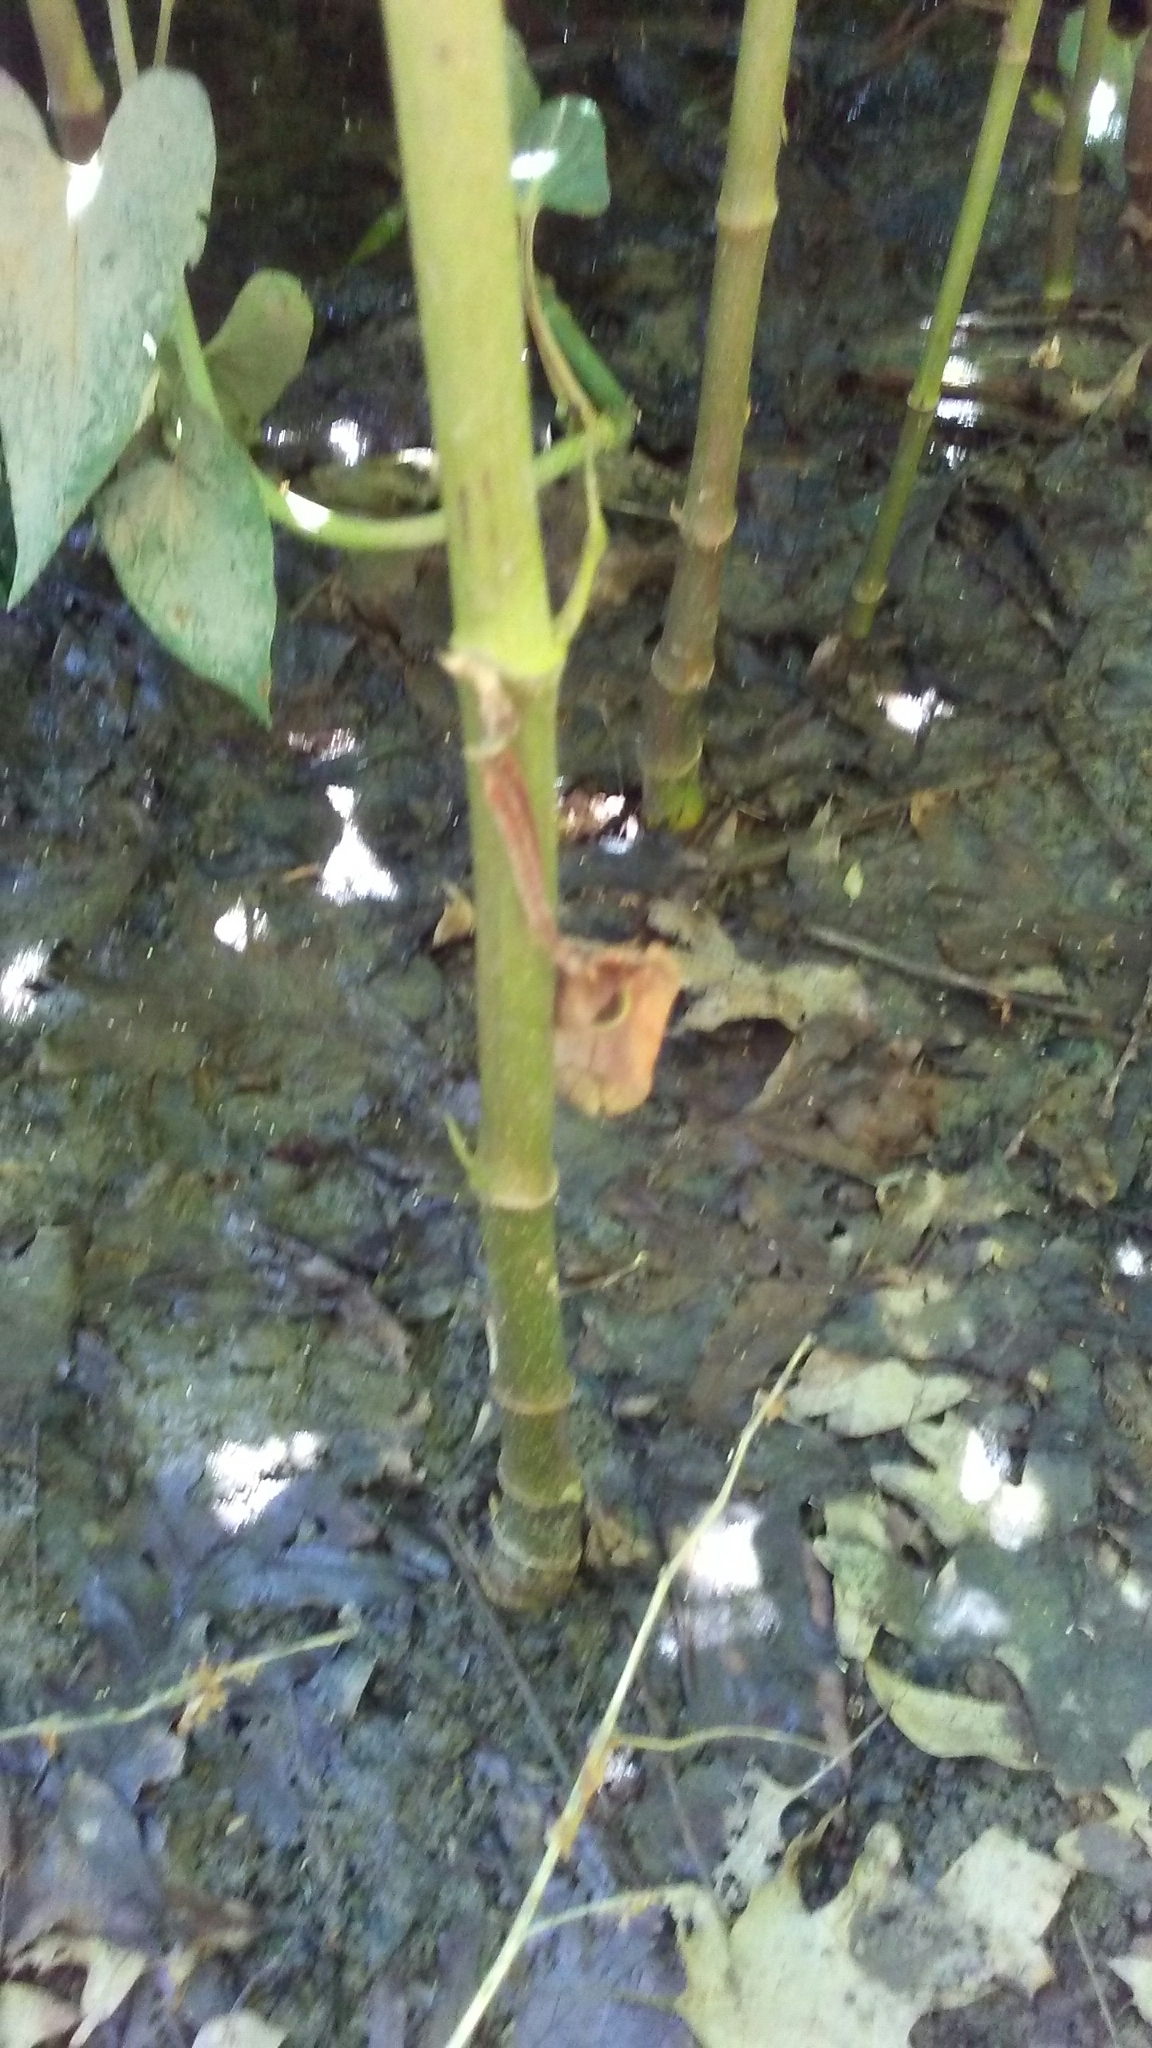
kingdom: Plantae
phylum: Tracheophyta
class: Magnoliopsida
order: Piperales
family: Saururaceae
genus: Saururus
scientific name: Saururus cernuus
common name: Lizard's-tail
